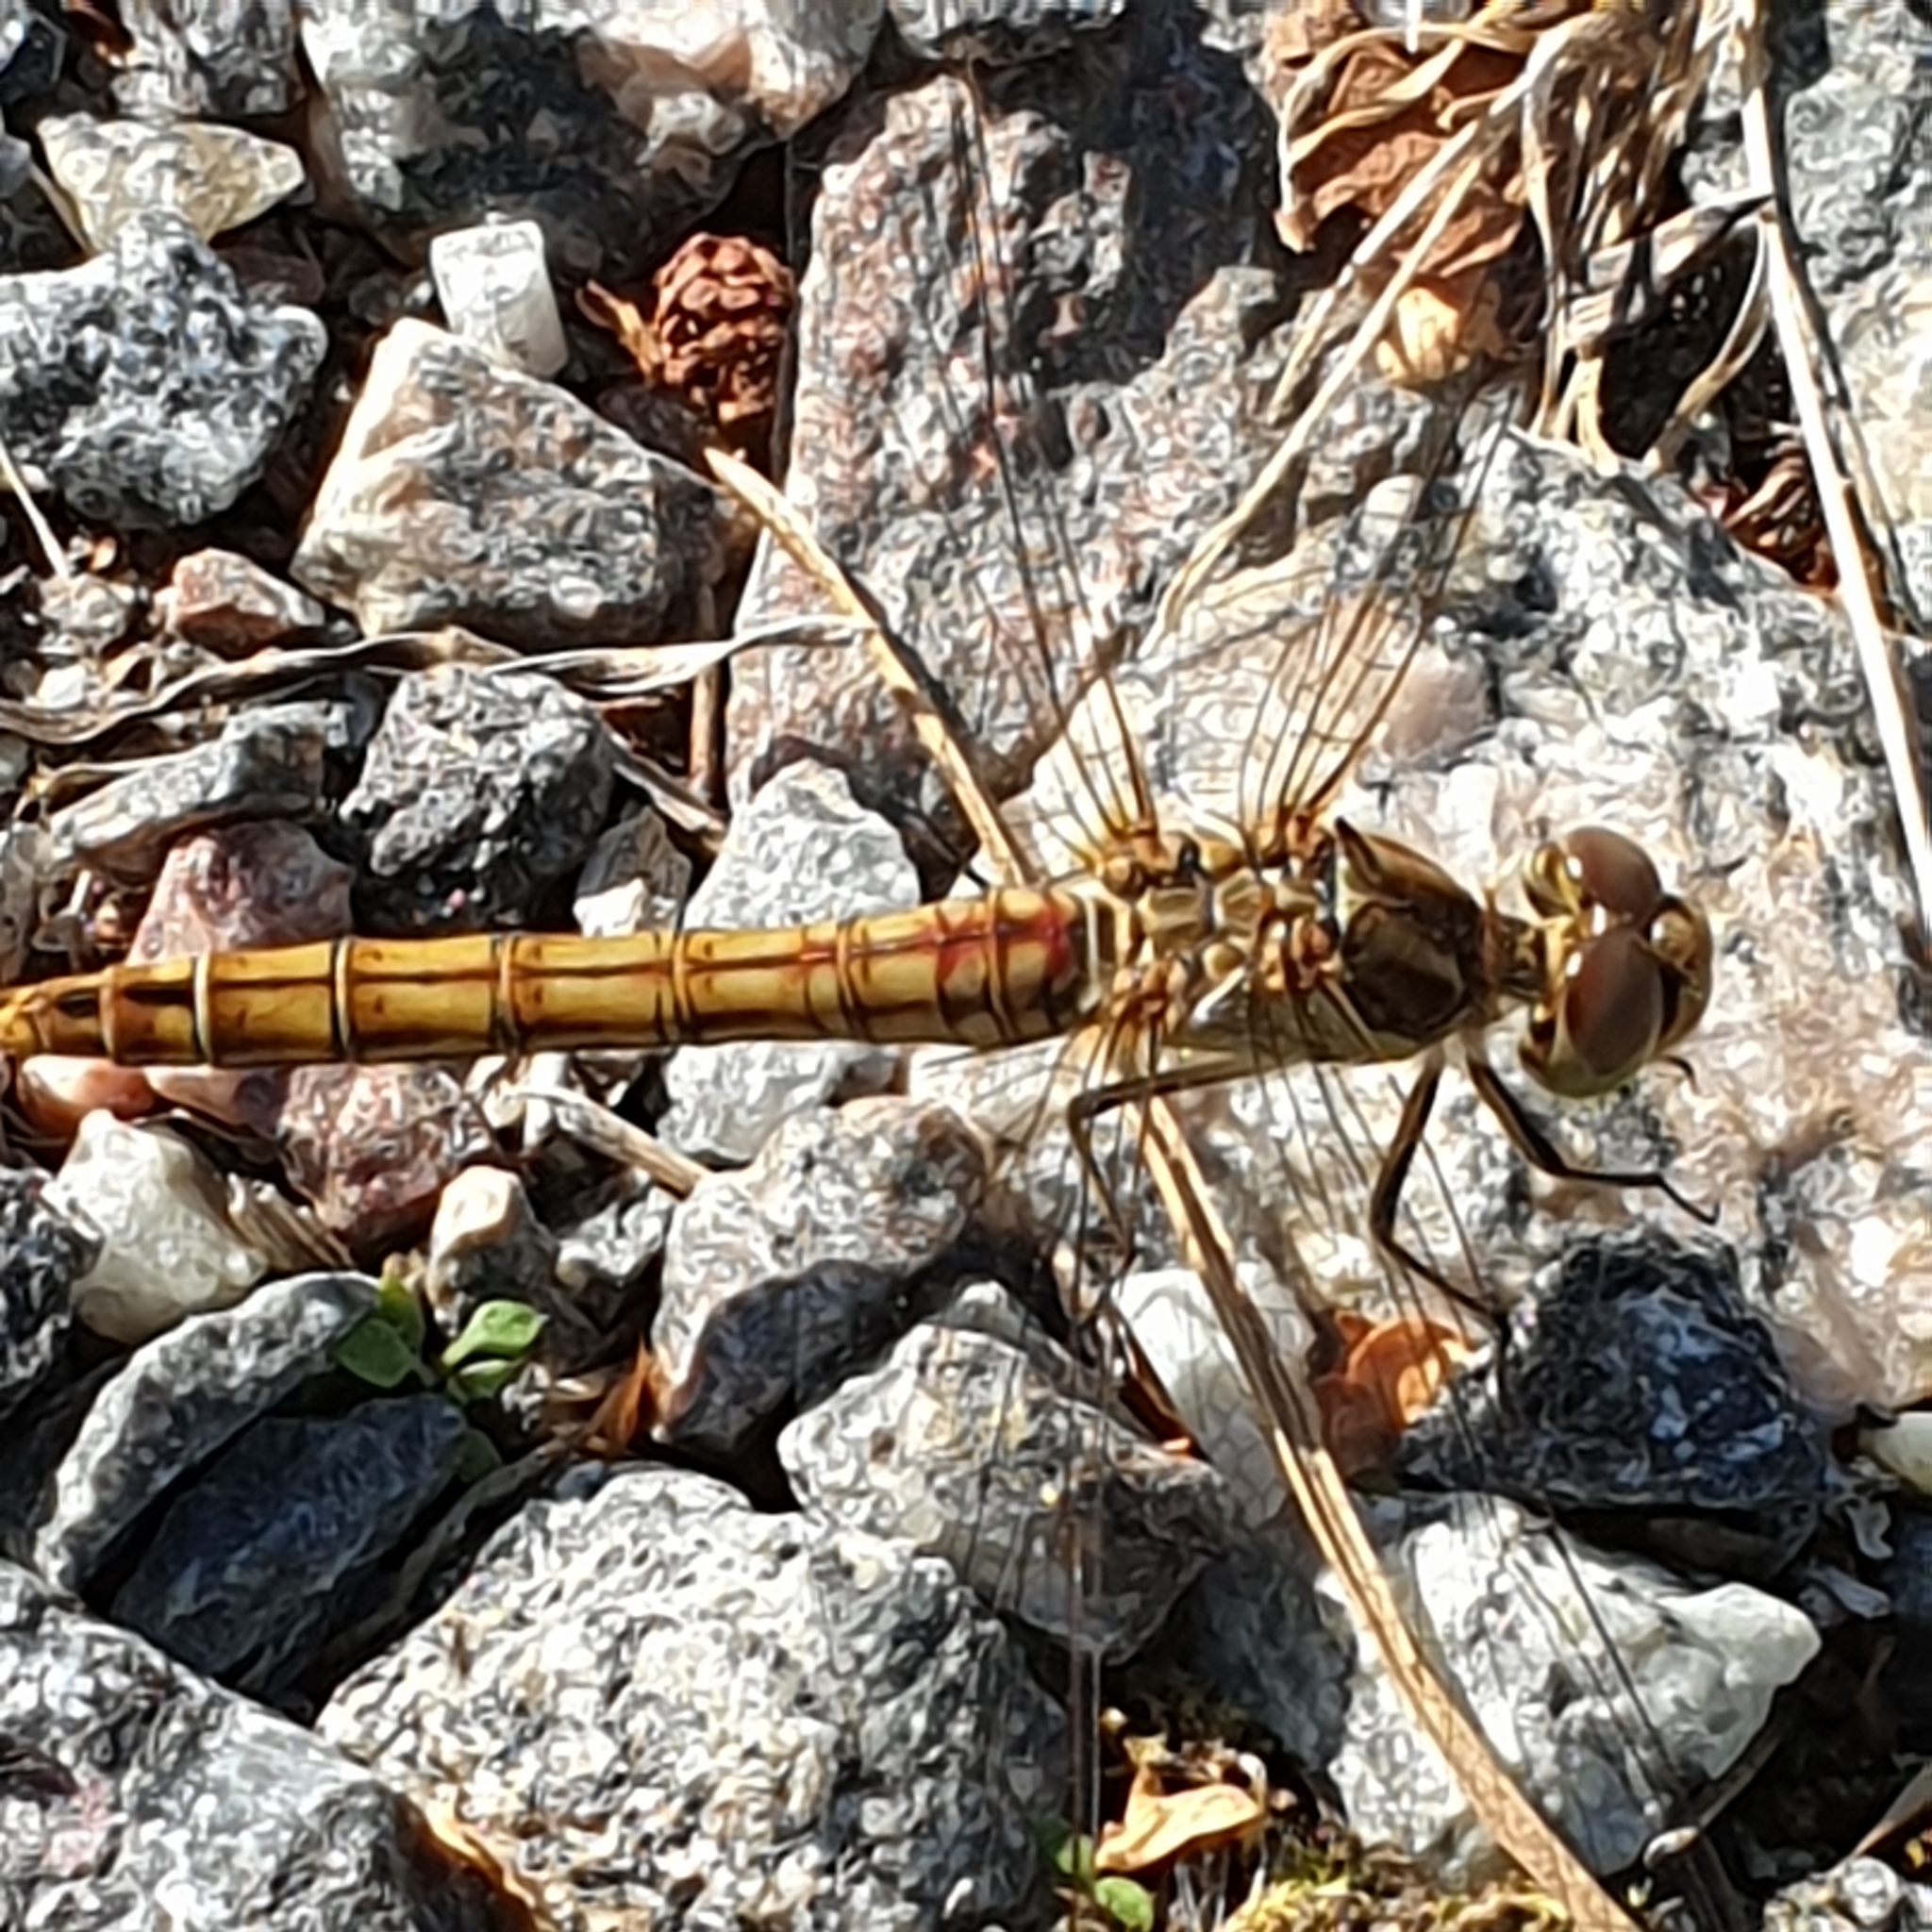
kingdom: Animalia
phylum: Arthropoda
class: Insecta
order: Odonata
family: Libellulidae
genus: Sympetrum
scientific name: Sympetrum vulgatum
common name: Vagrant darter
